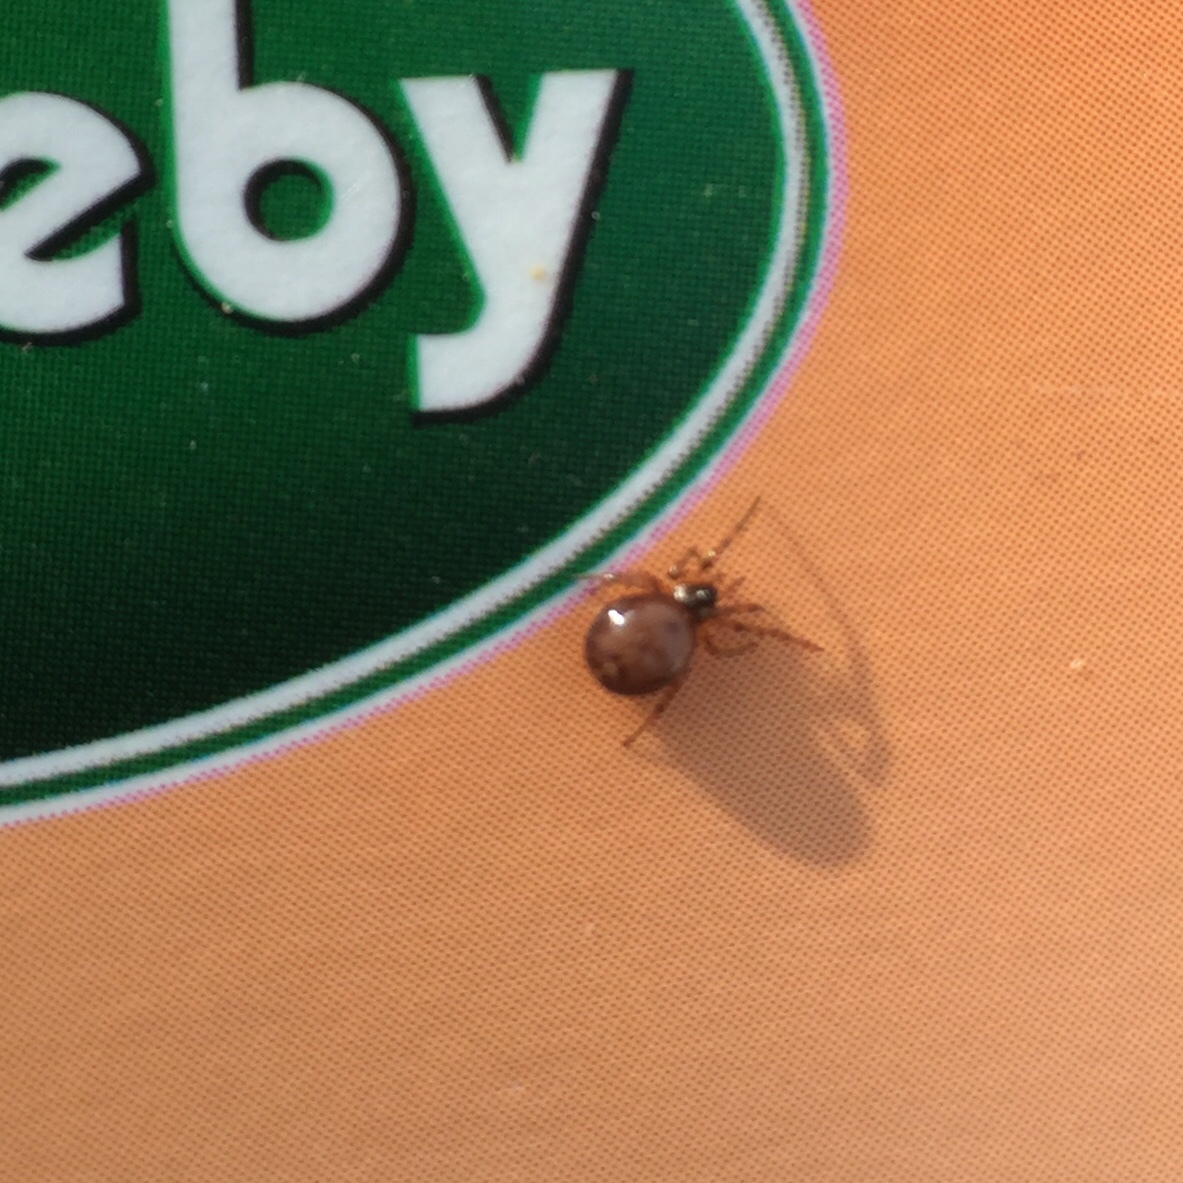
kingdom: Animalia
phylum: Arthropoda
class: Arachnida
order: Araneae
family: Theridiidae
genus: Steatoda
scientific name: Steatoda bipunctata
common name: False widow
